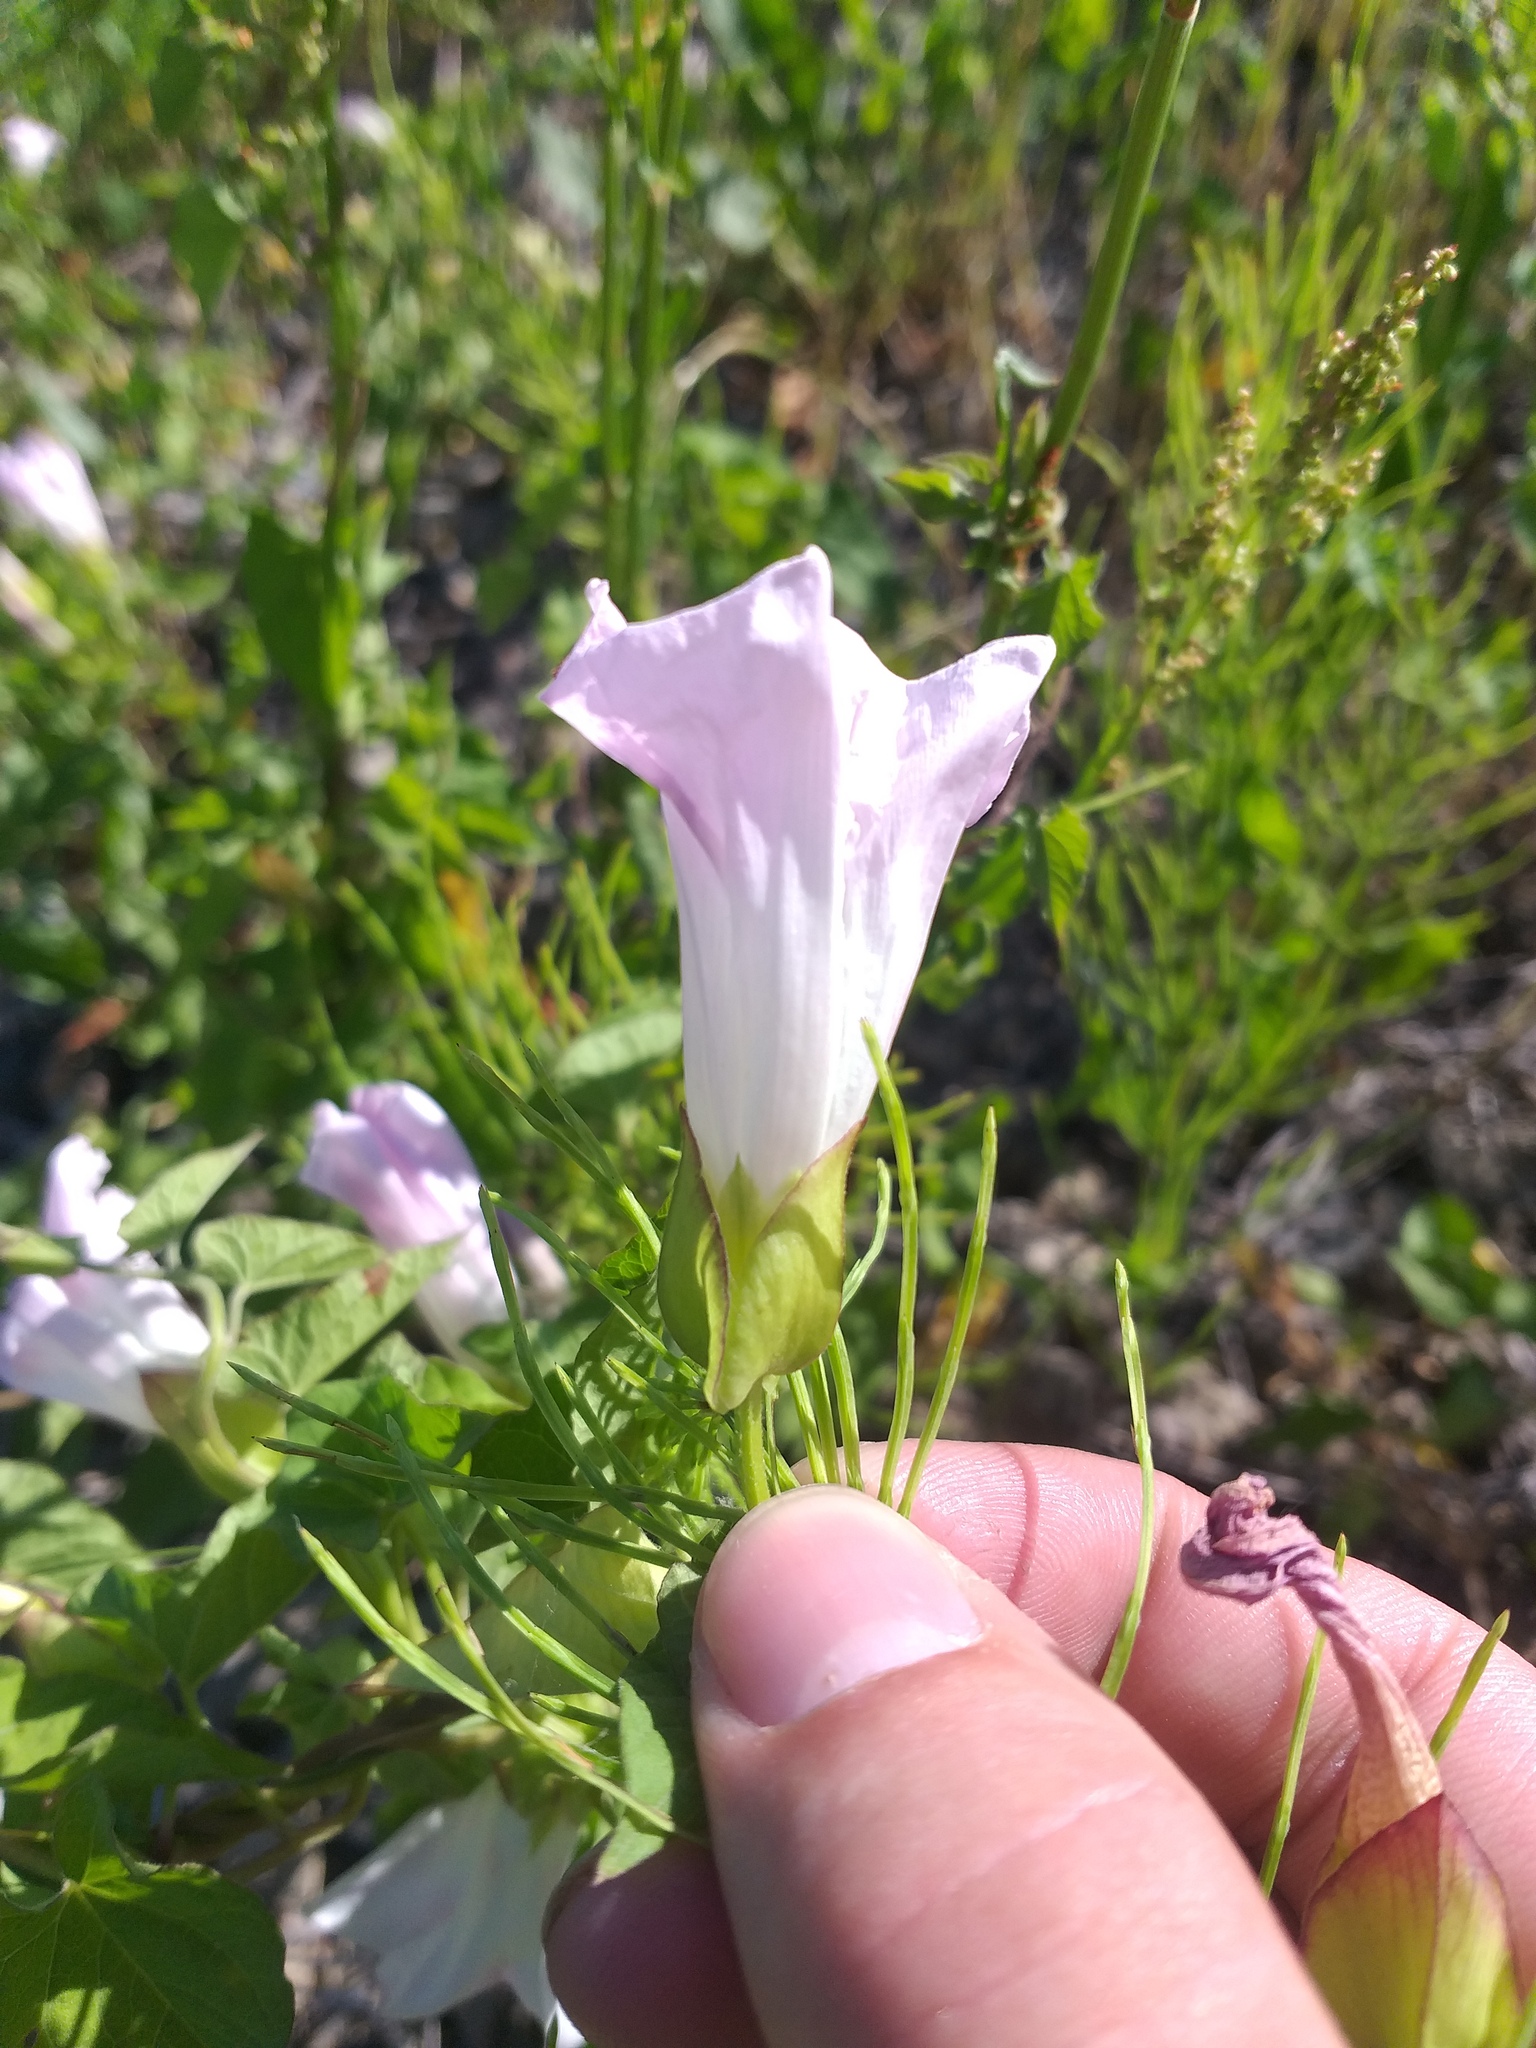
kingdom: Plantae
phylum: Tracheophyta
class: Magnoliopsida
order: Solanales
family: Convolvulaceae
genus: Calystegia
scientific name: Calystegia sepium
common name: Hedge bindweed
